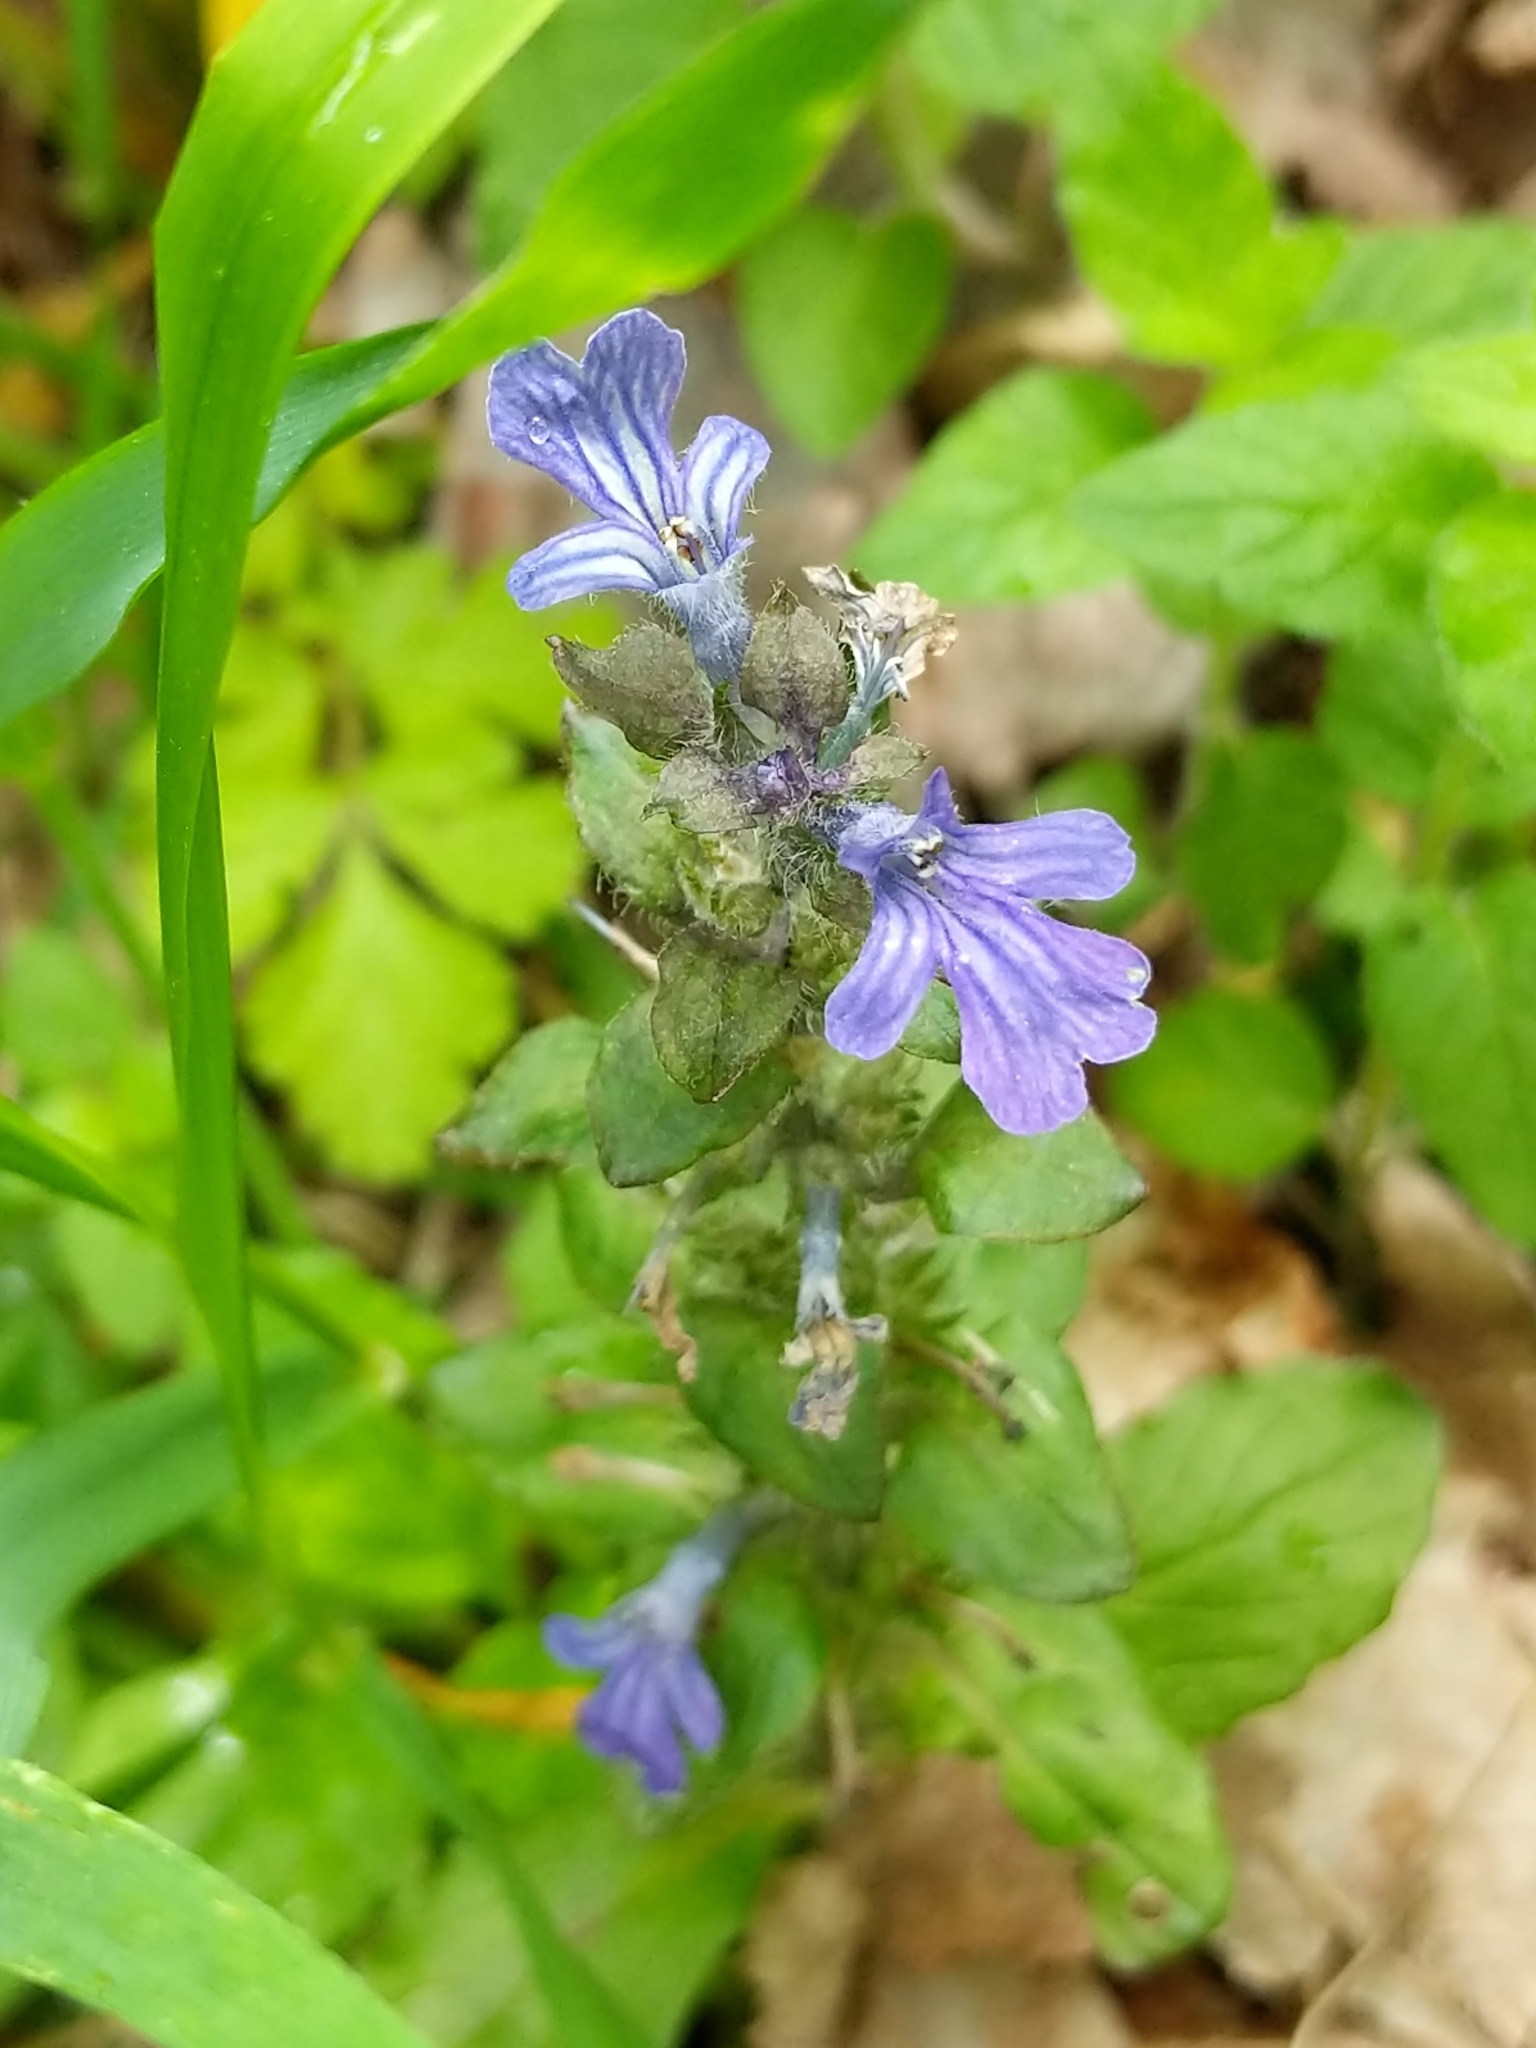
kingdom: Plantae
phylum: Tracheophyta
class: Magnoliopsida
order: Lamiales
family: Lamiaceae
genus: Ajuga
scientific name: Ajuga reptans
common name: Bugle
